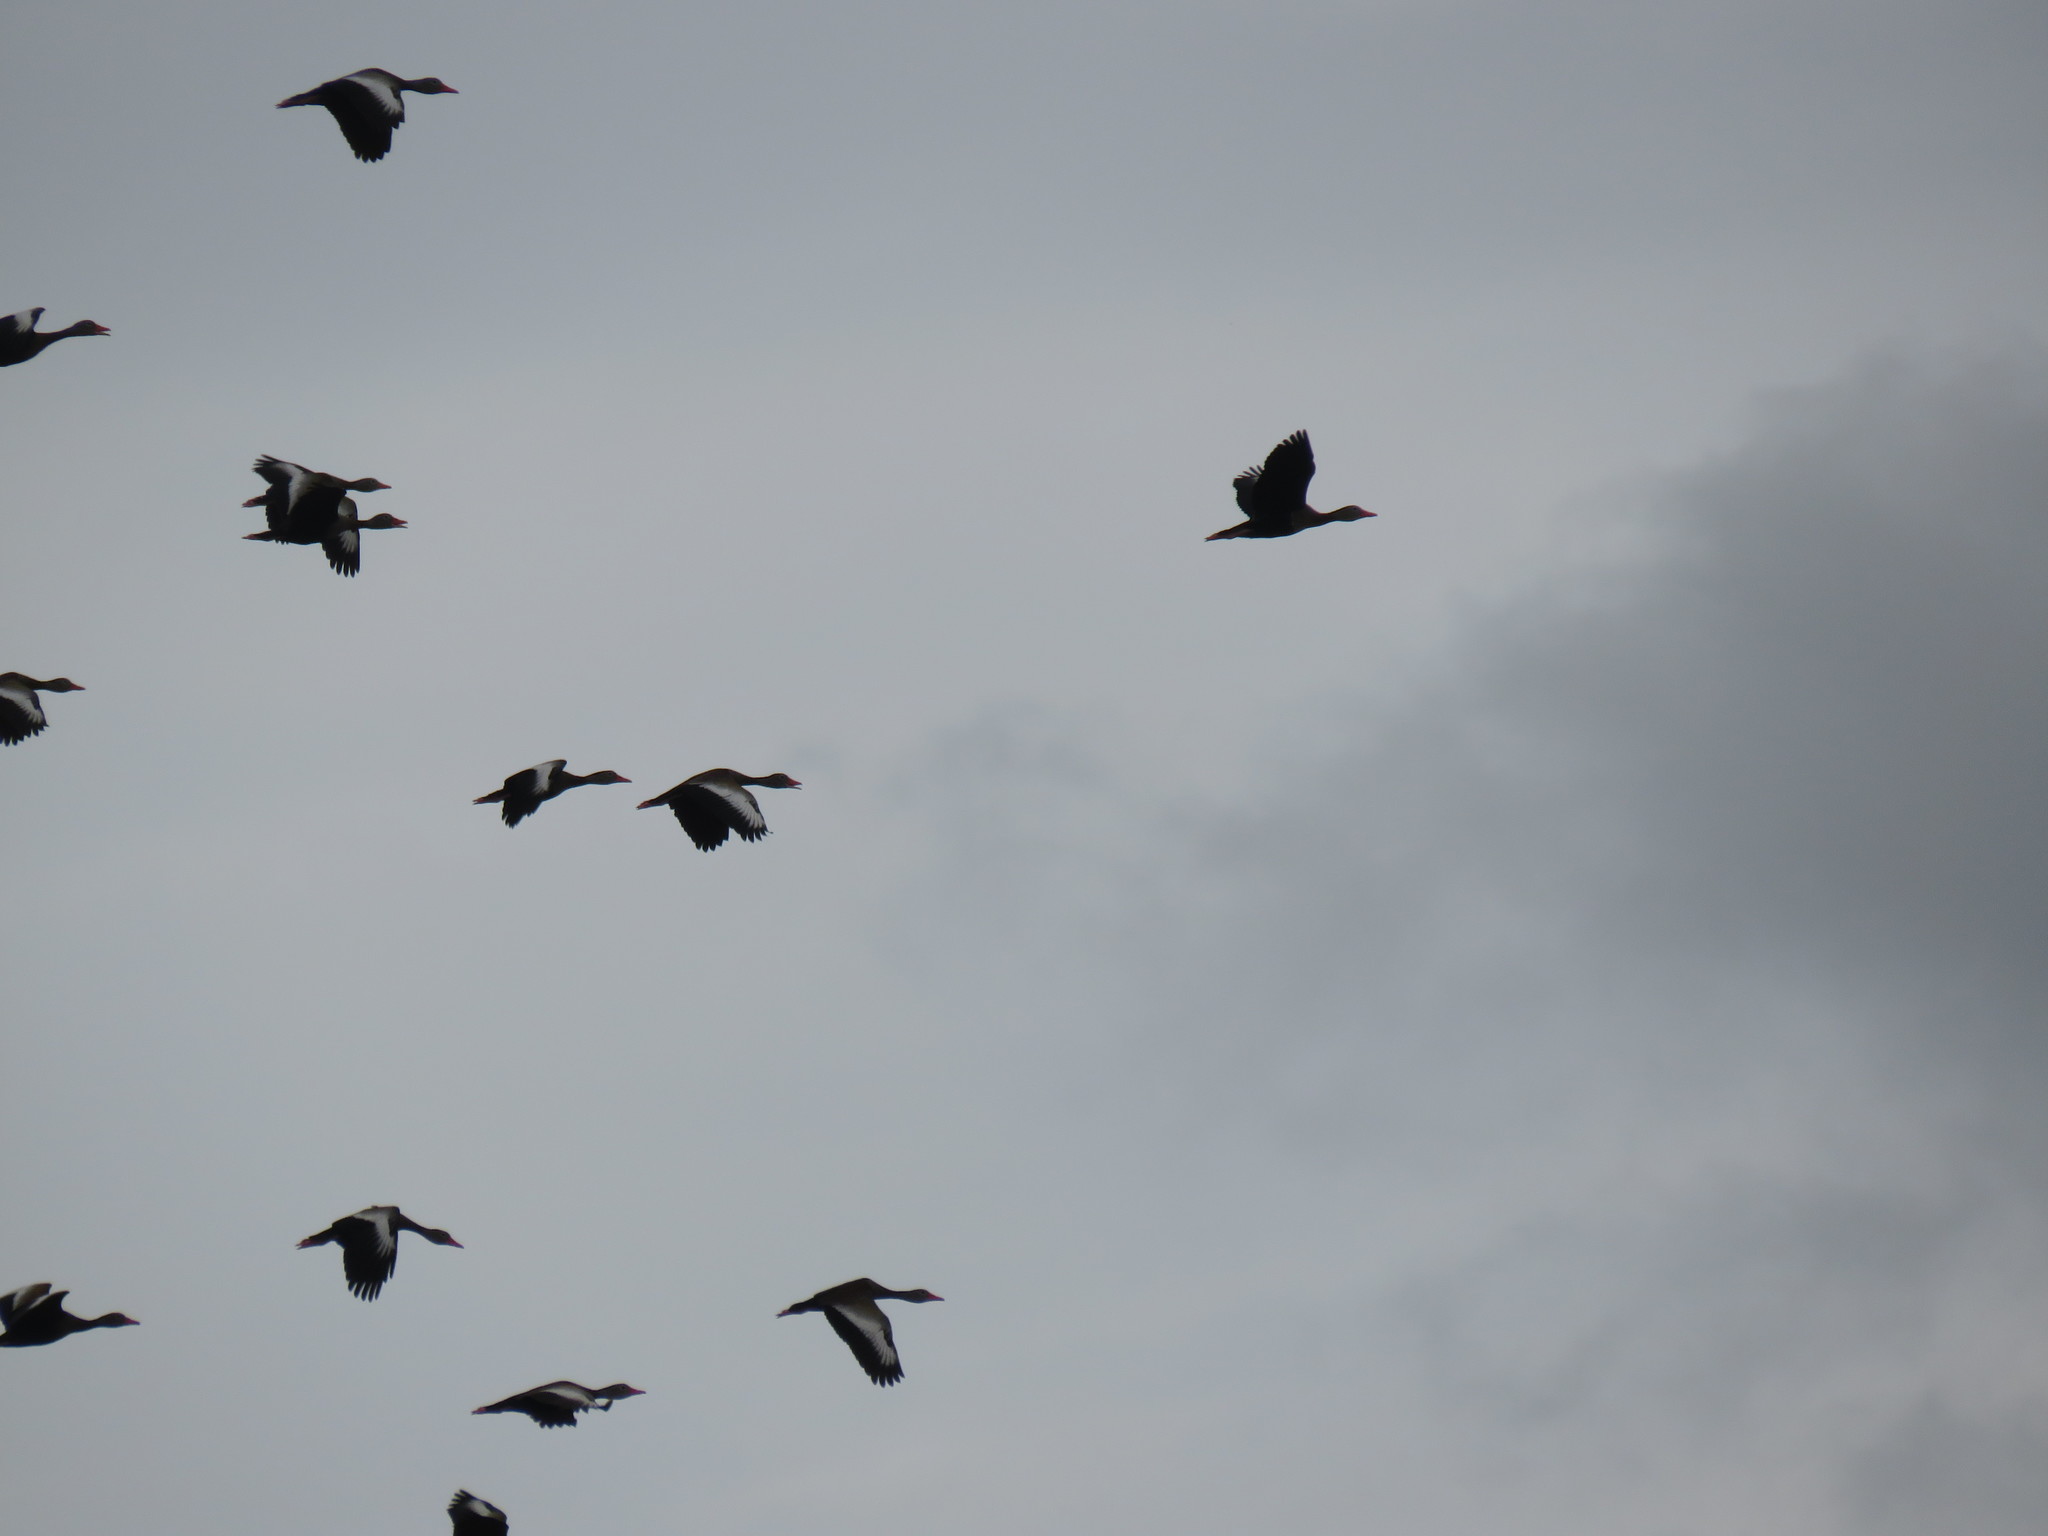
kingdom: Animalia
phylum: Chordata
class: Aves
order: Anseriformes
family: Anatidae
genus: Dendrocygna
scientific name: Dendrocygna autumnalis
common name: Black-bellied whistling duck
